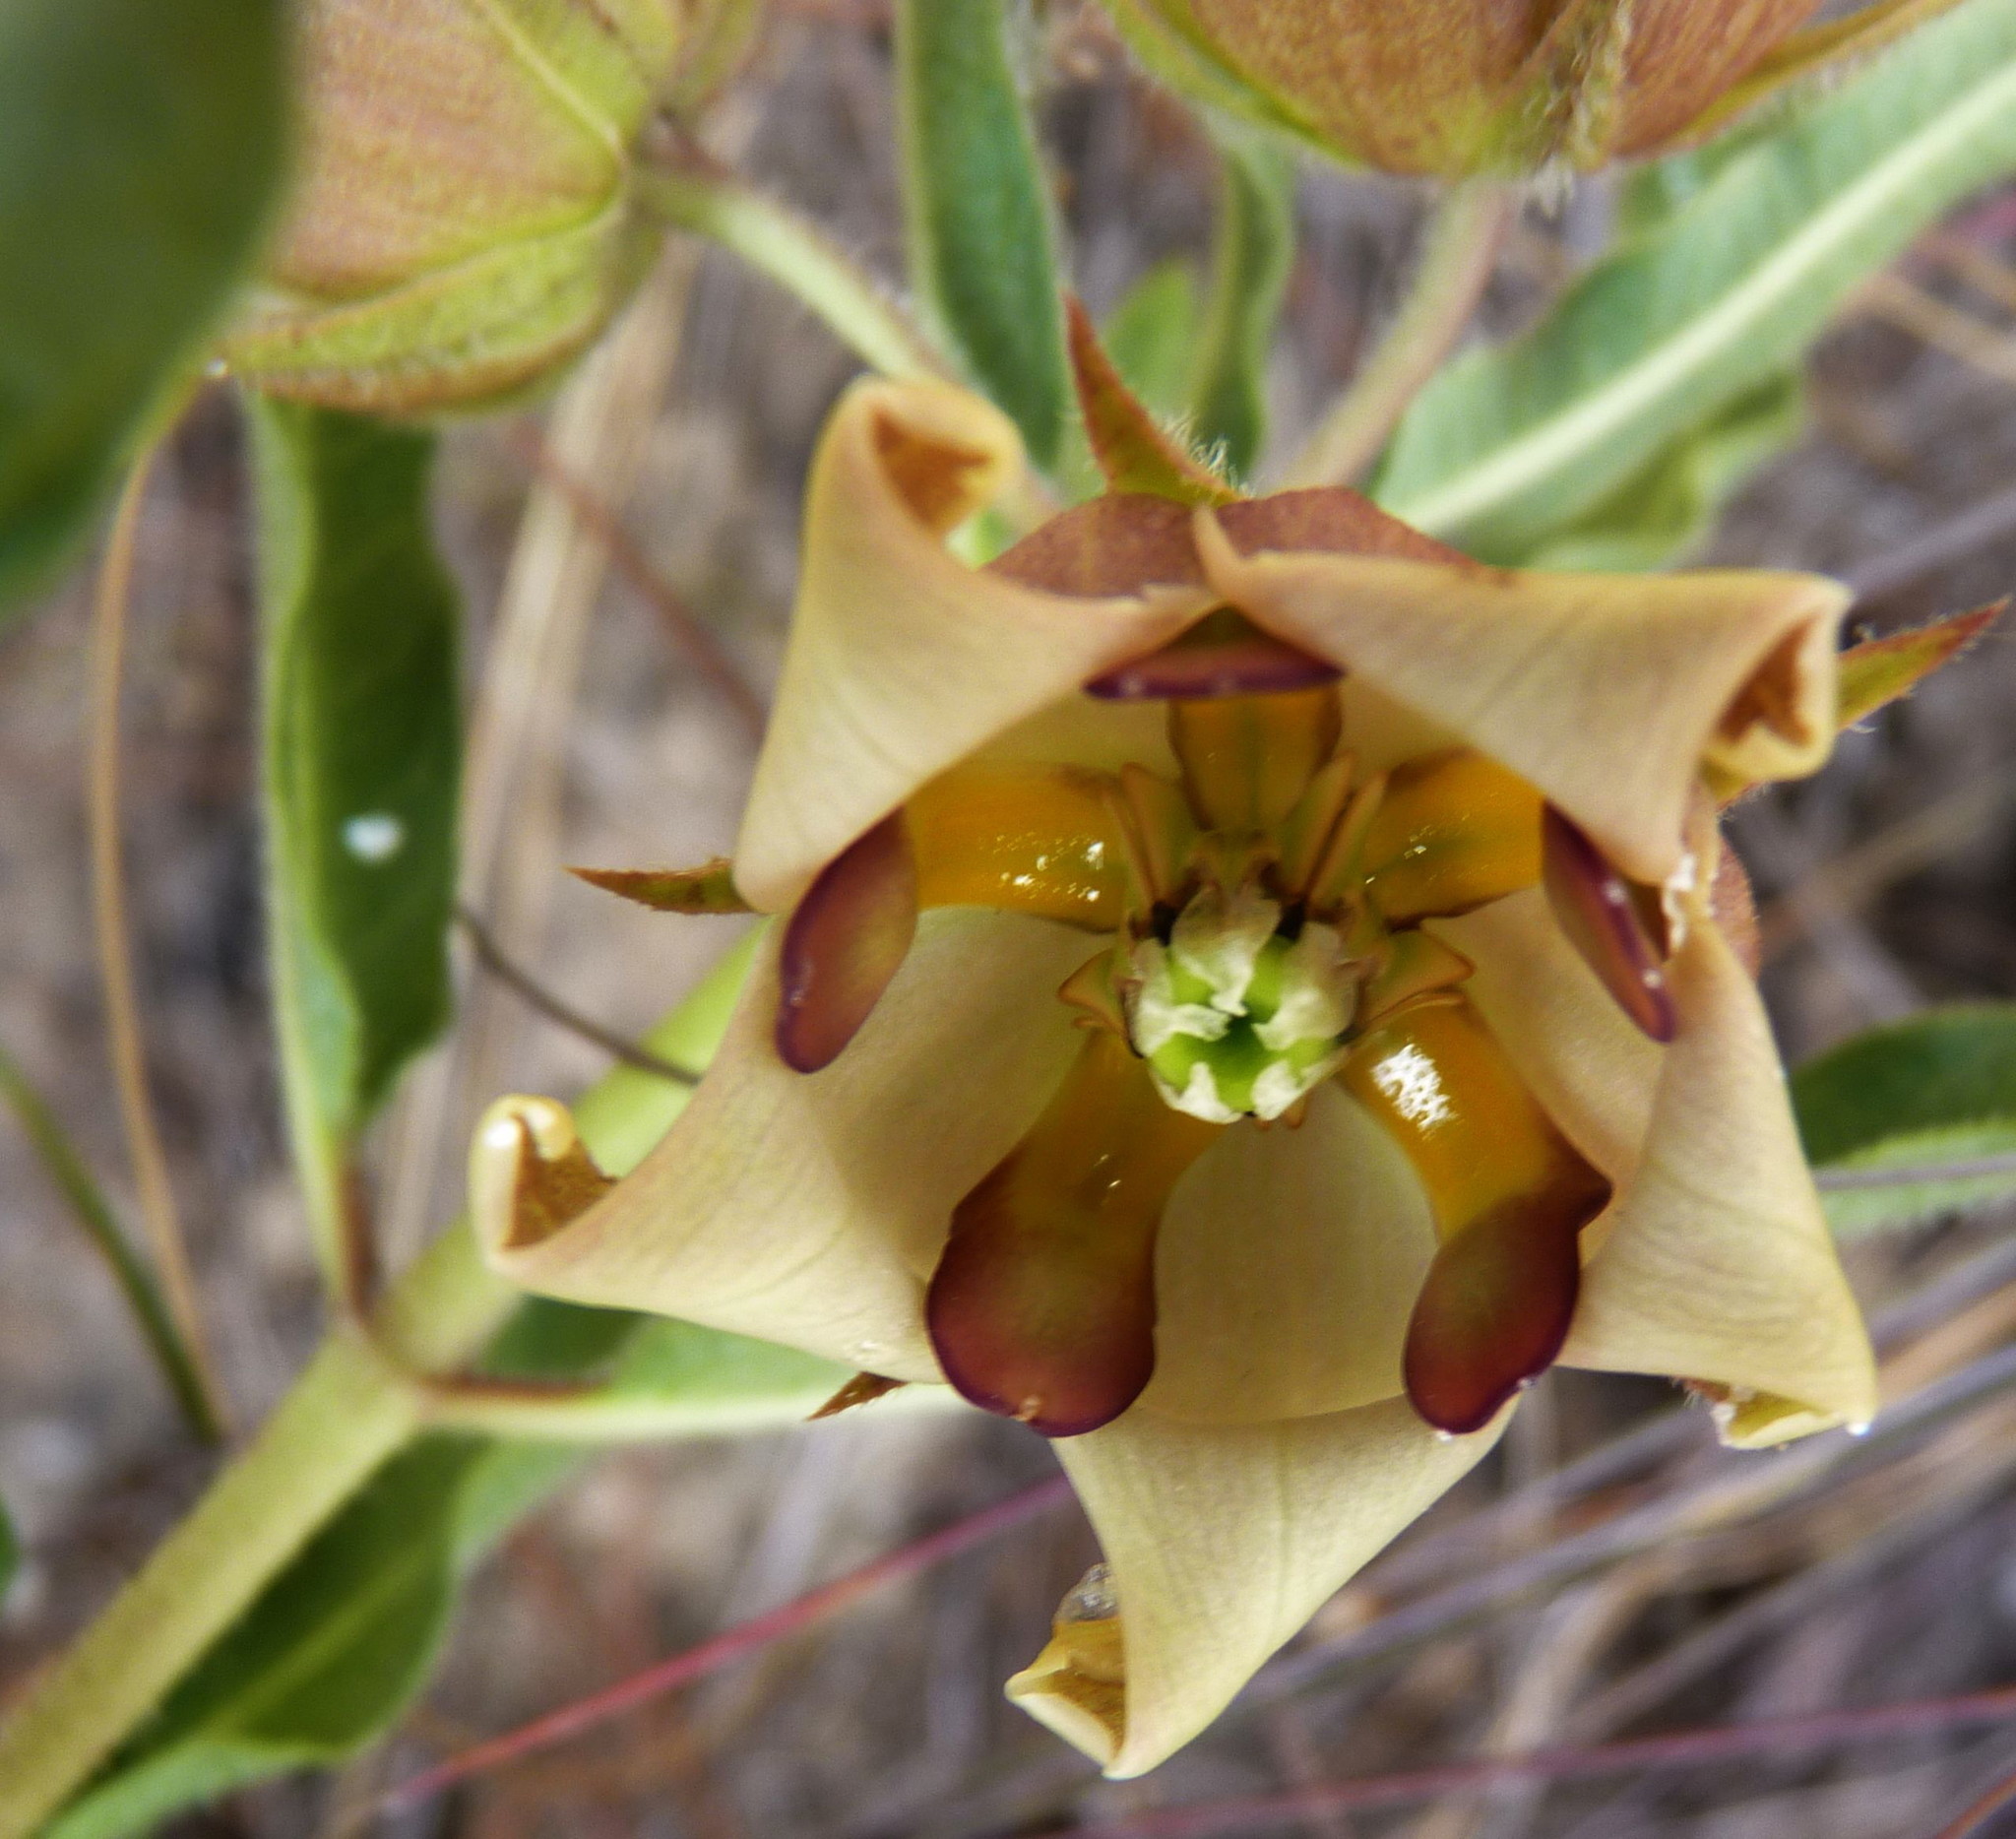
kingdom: Plantae
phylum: Tracheophyta
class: Magnoliopsida
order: Gentianales
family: Apocynaceae
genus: Pachycarpus
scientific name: Pachycarpus dealbatus
